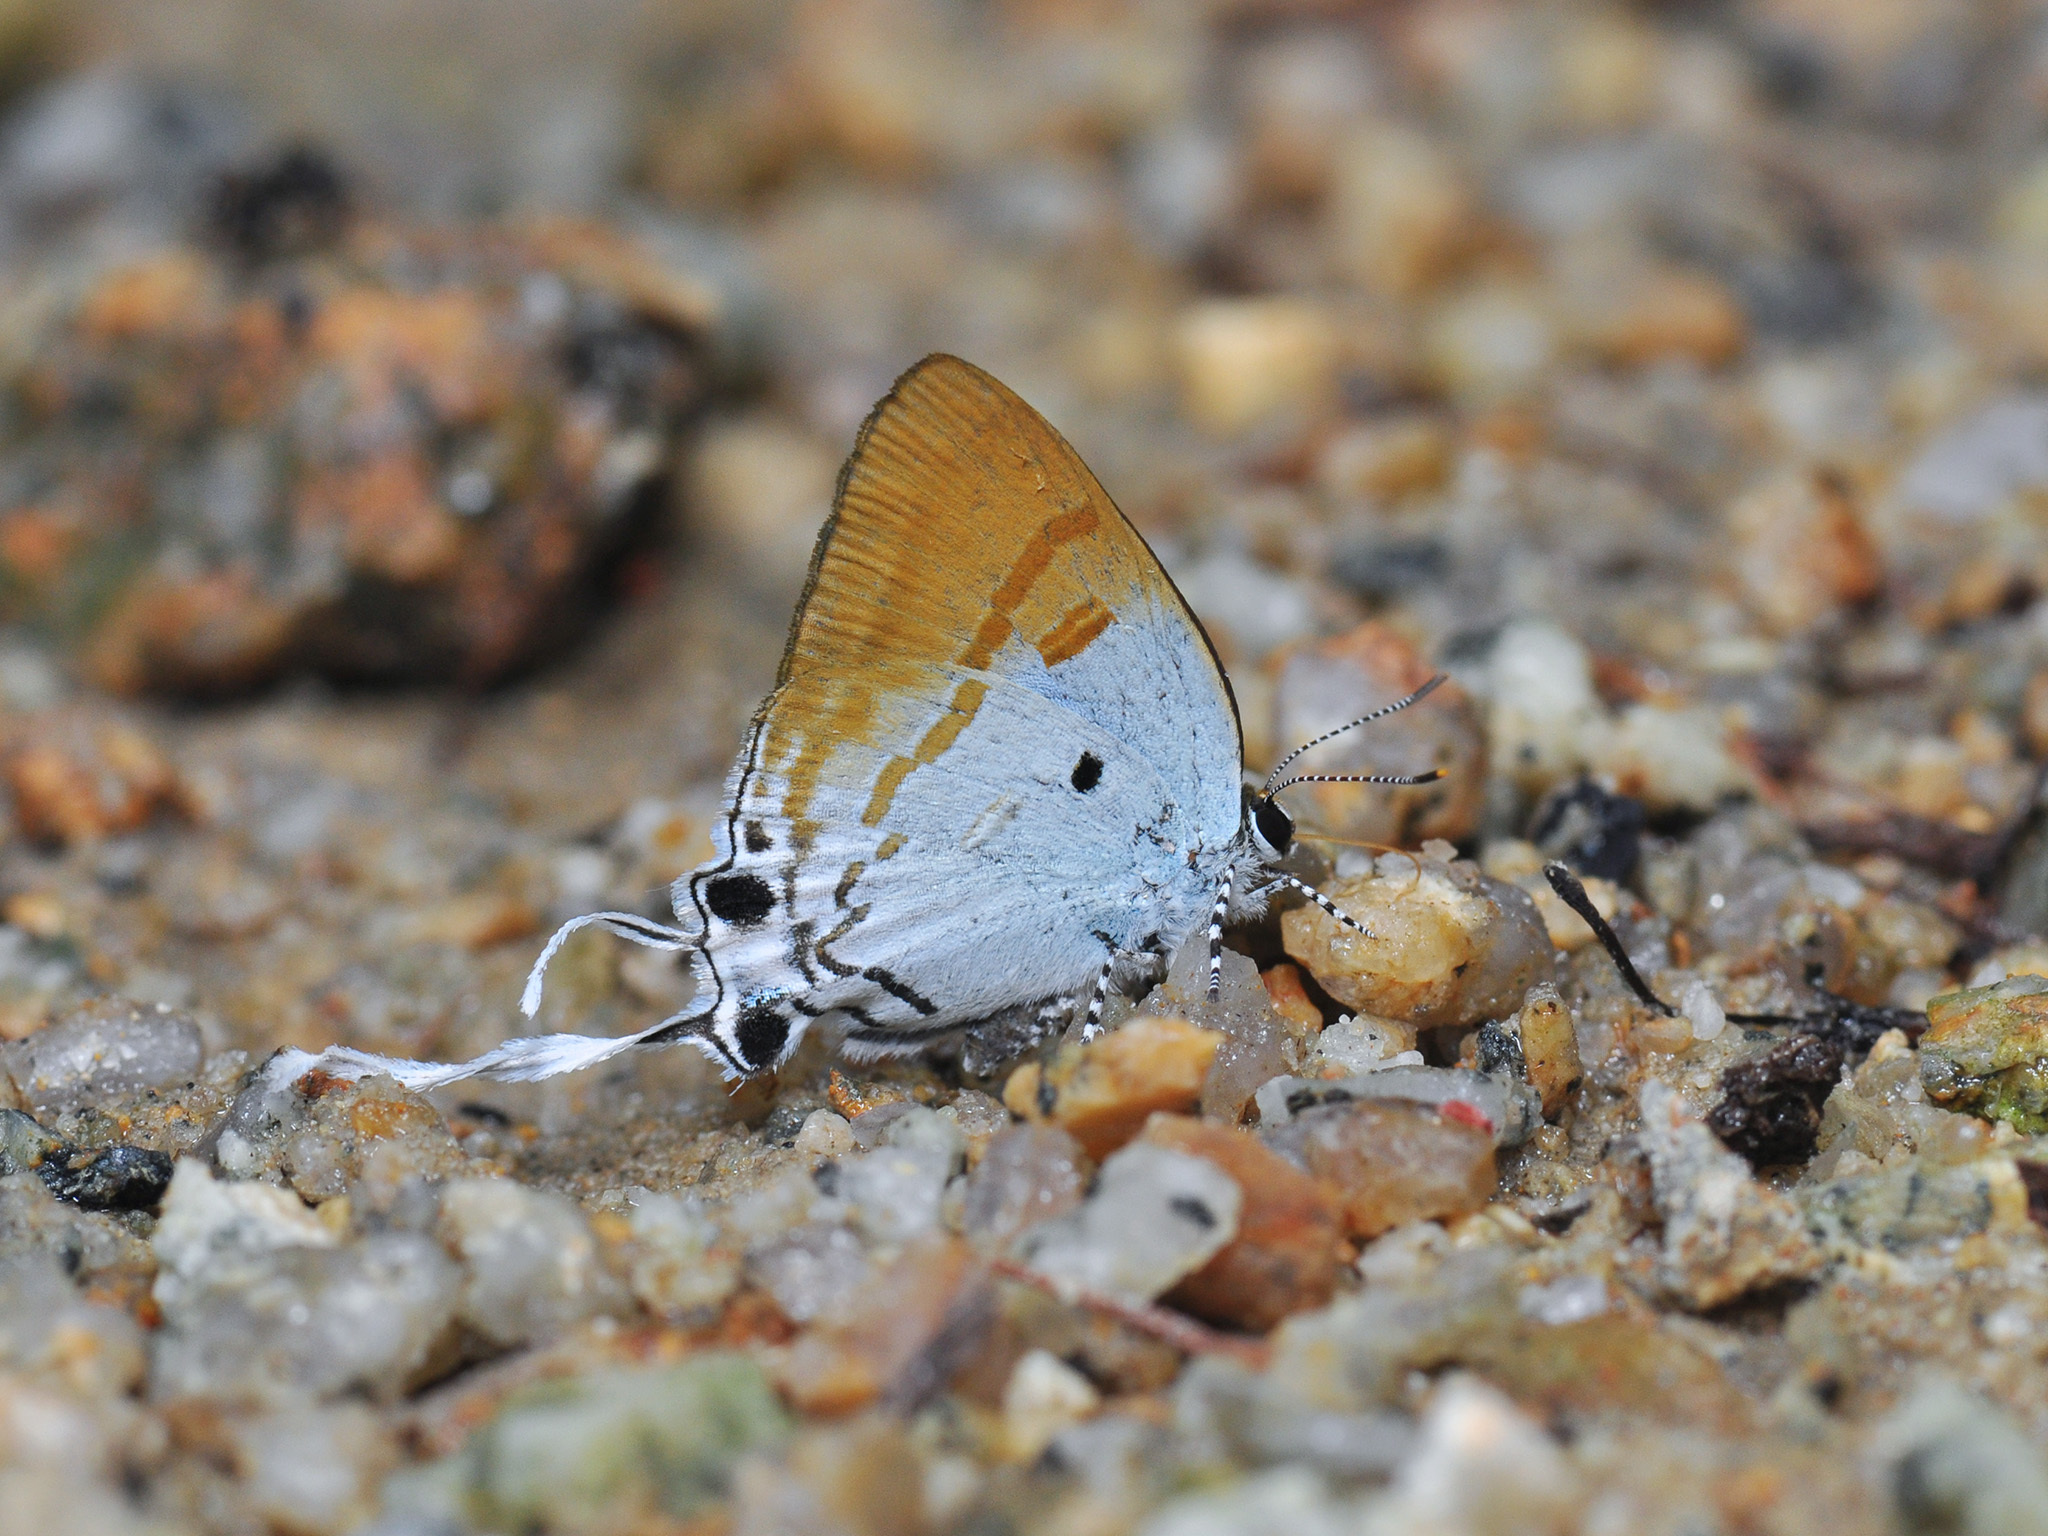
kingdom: Animalia
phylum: Arthropoda
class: Insecta
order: Lepidoptera
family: Lycaenidae
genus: Zeltus
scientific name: Zeltus amasa
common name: Fluffy tit
